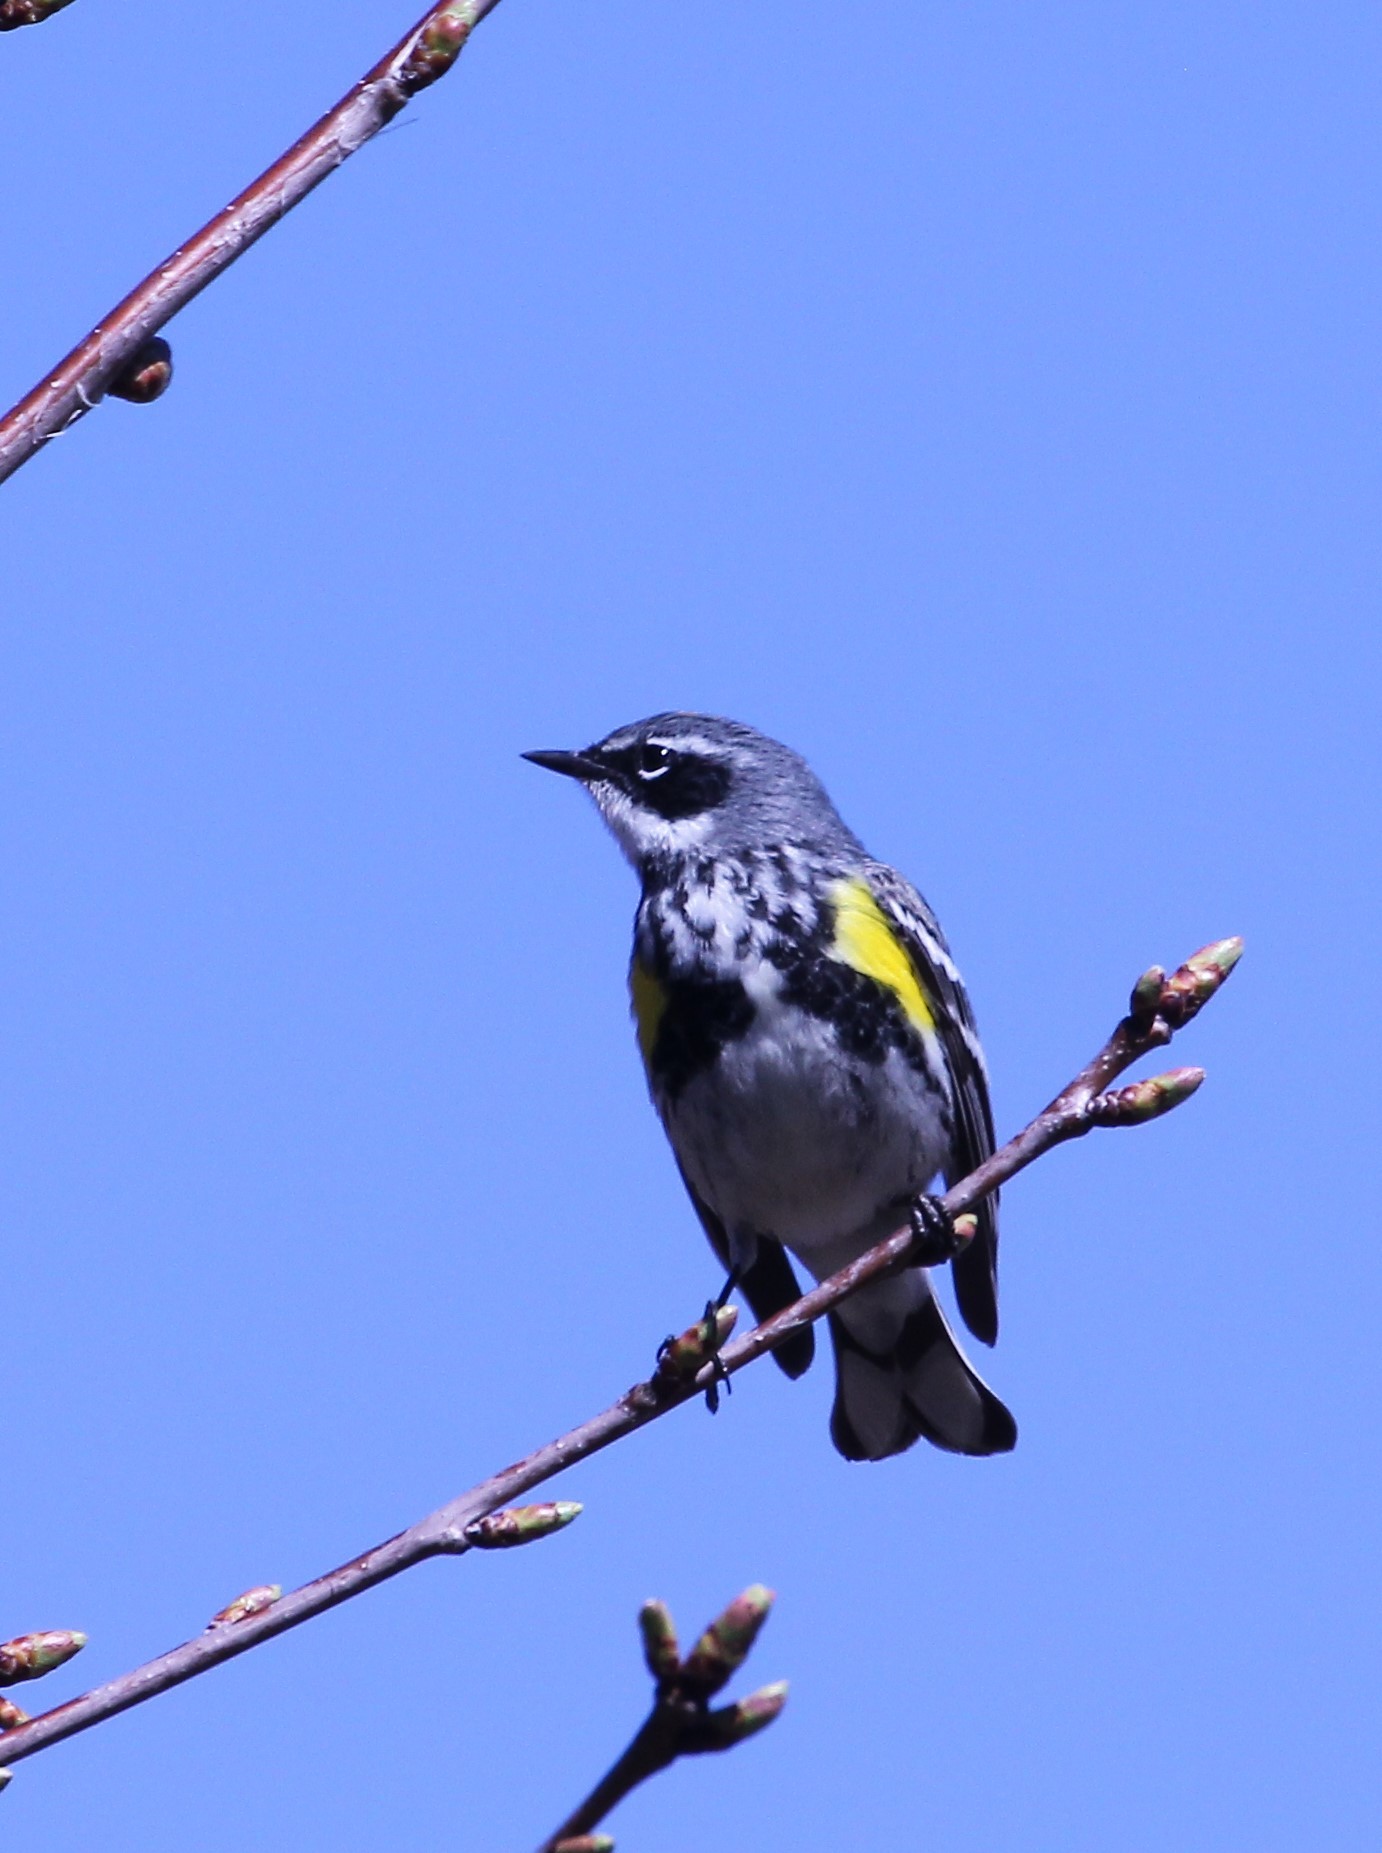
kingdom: Animalia
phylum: Chordata
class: Aves
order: Passeriformes
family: Parulidae
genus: Setophaga
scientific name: Setophaga coronata
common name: Myrtle warbler
